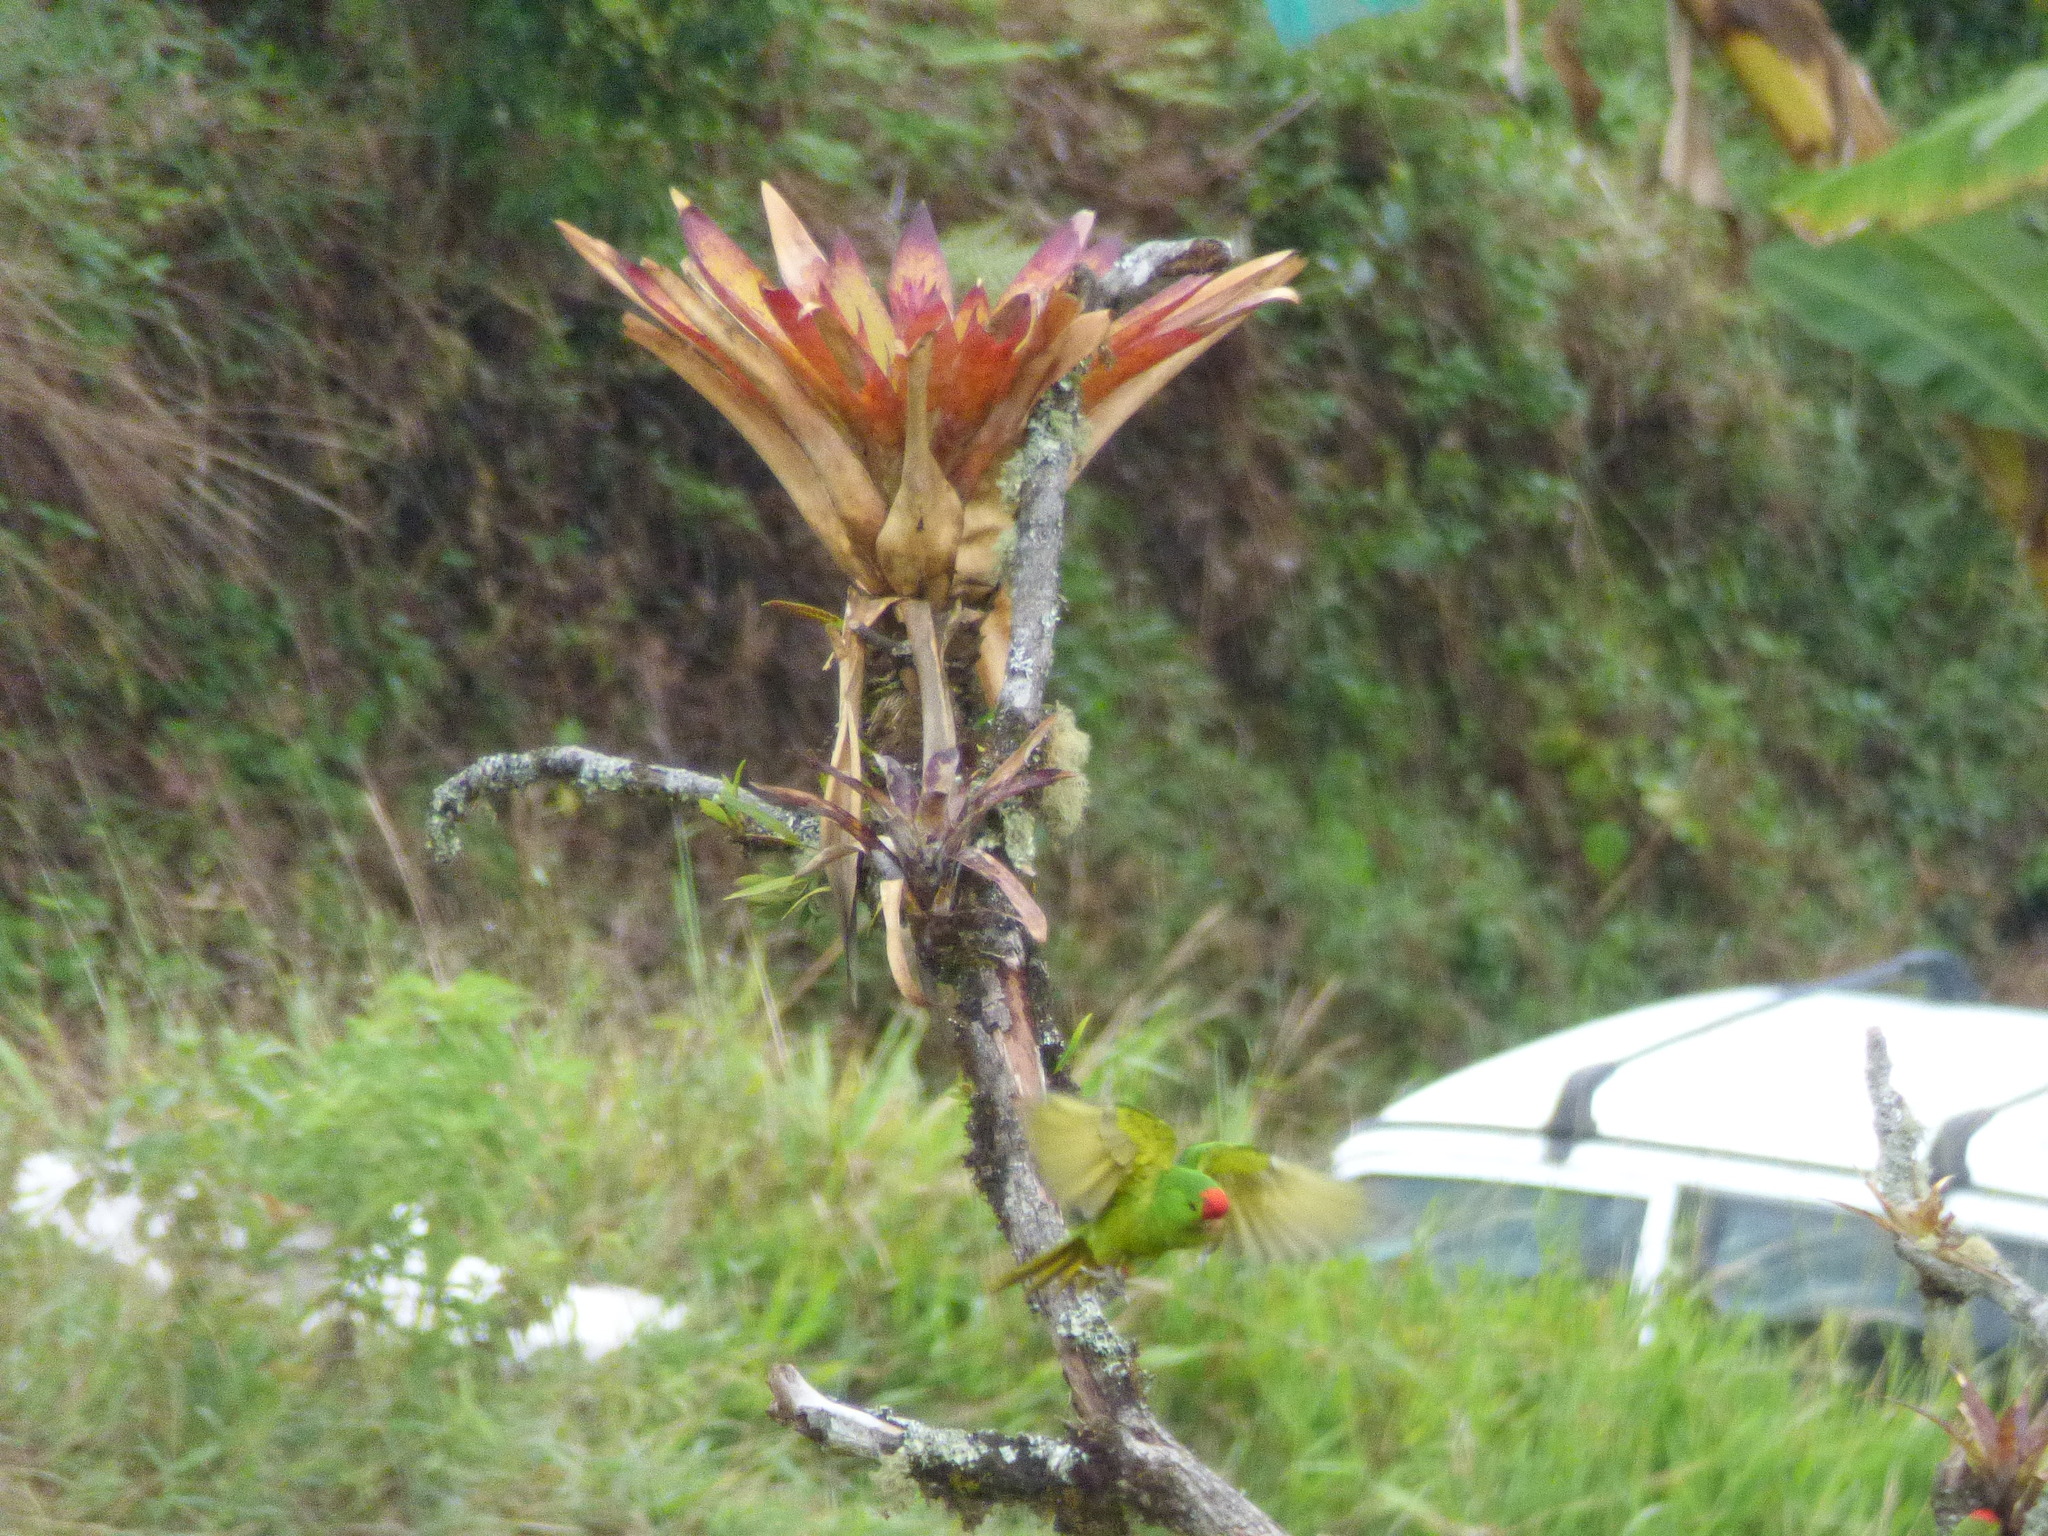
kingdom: Animalia
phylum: Chordata
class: Aves
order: Psittaciformes
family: Psittacidae
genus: Aratinga
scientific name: Aratinga wagleri
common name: Scarlet-fronted parakeet
